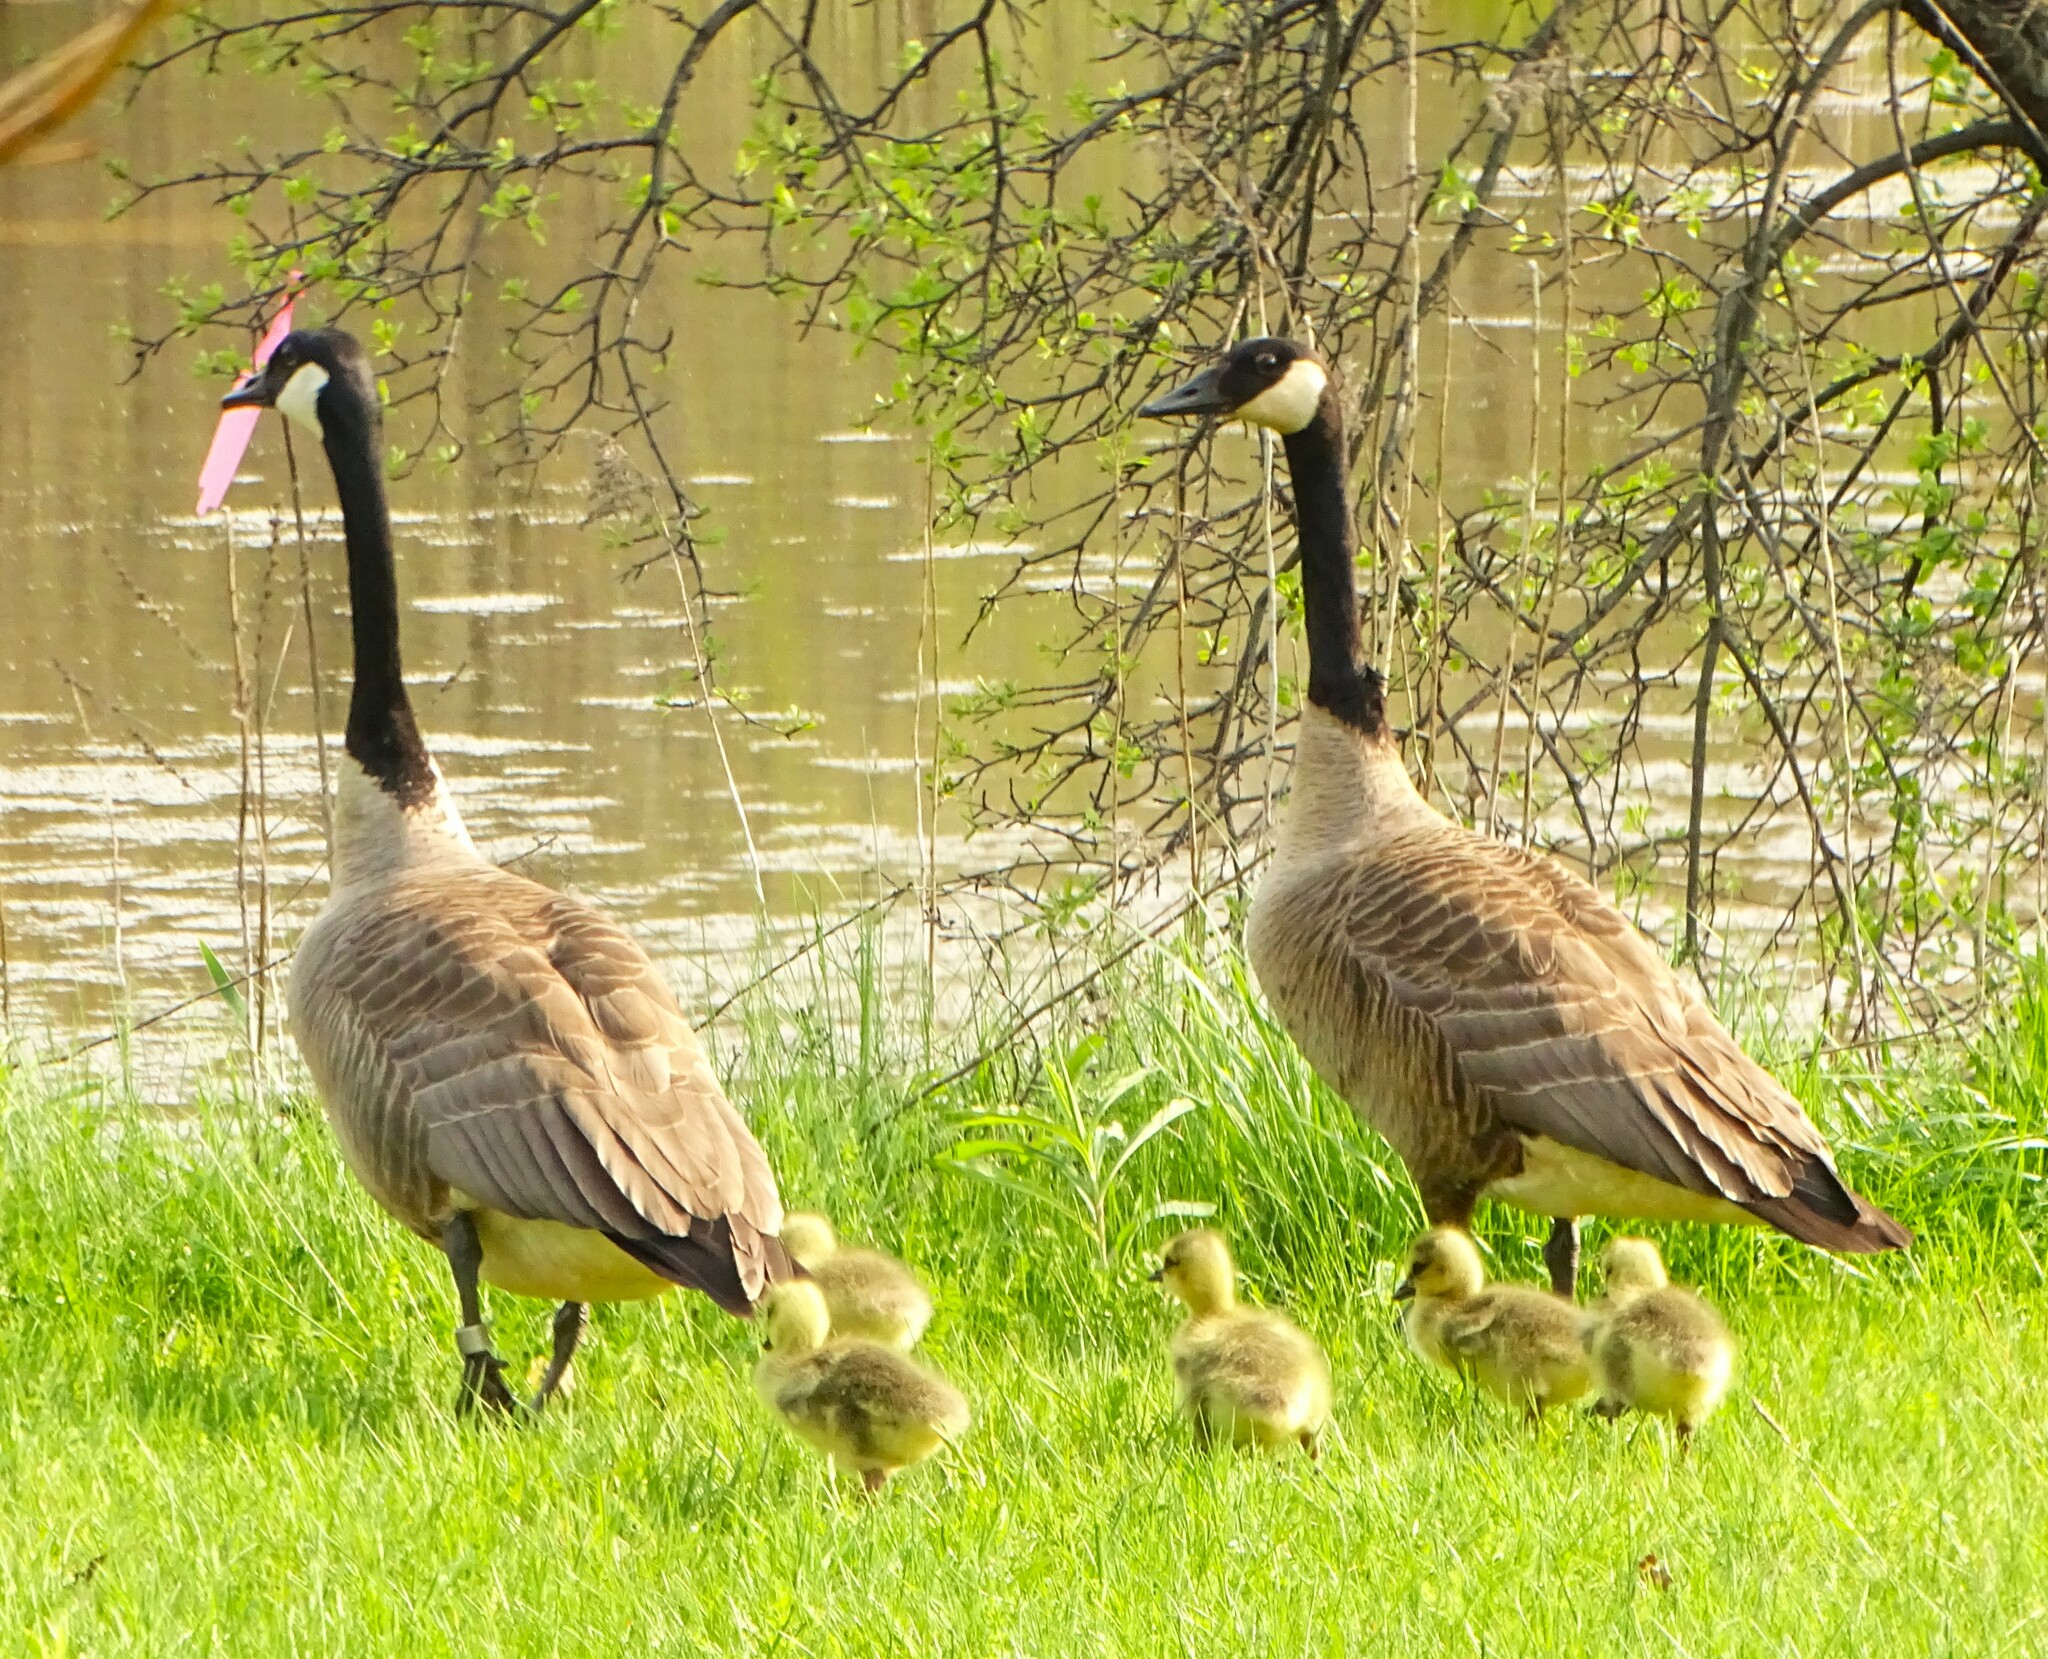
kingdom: Animalia
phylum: Chordata
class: Aves
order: Anseriformes
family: Anatidae
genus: Branta
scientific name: Branta canadensis
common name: Canada goose
